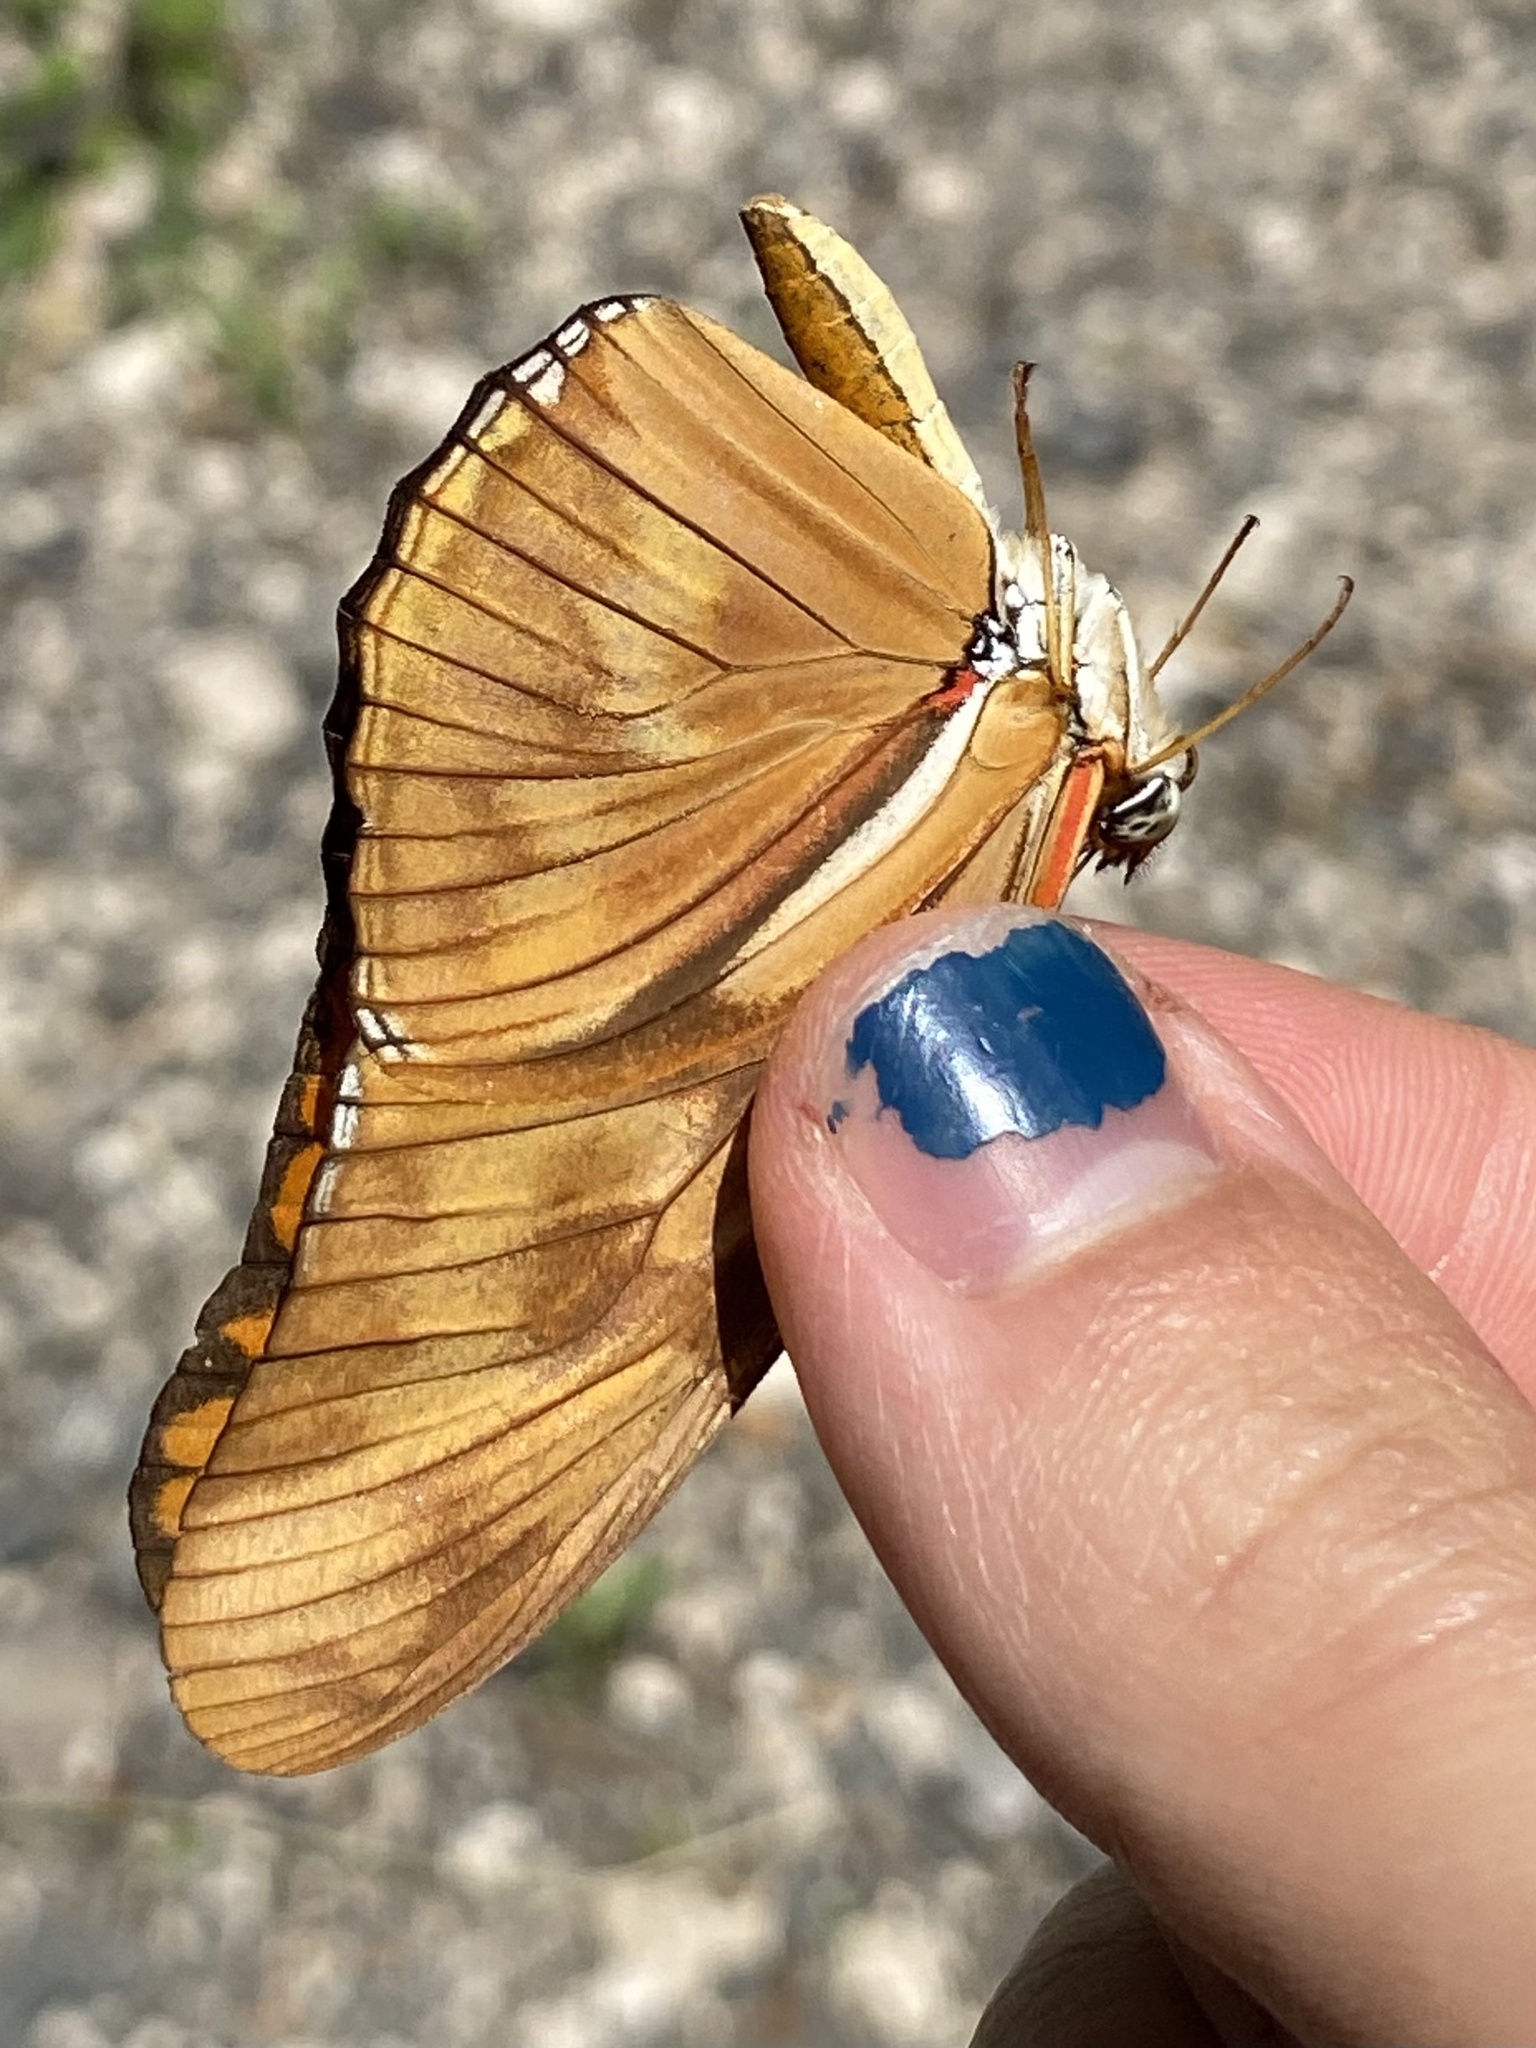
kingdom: Animalia
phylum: Arthropoda
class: Insecta
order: Lepidoptera
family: Nymphalidae
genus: Dryas
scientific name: Dryas iulia
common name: Flambeau
